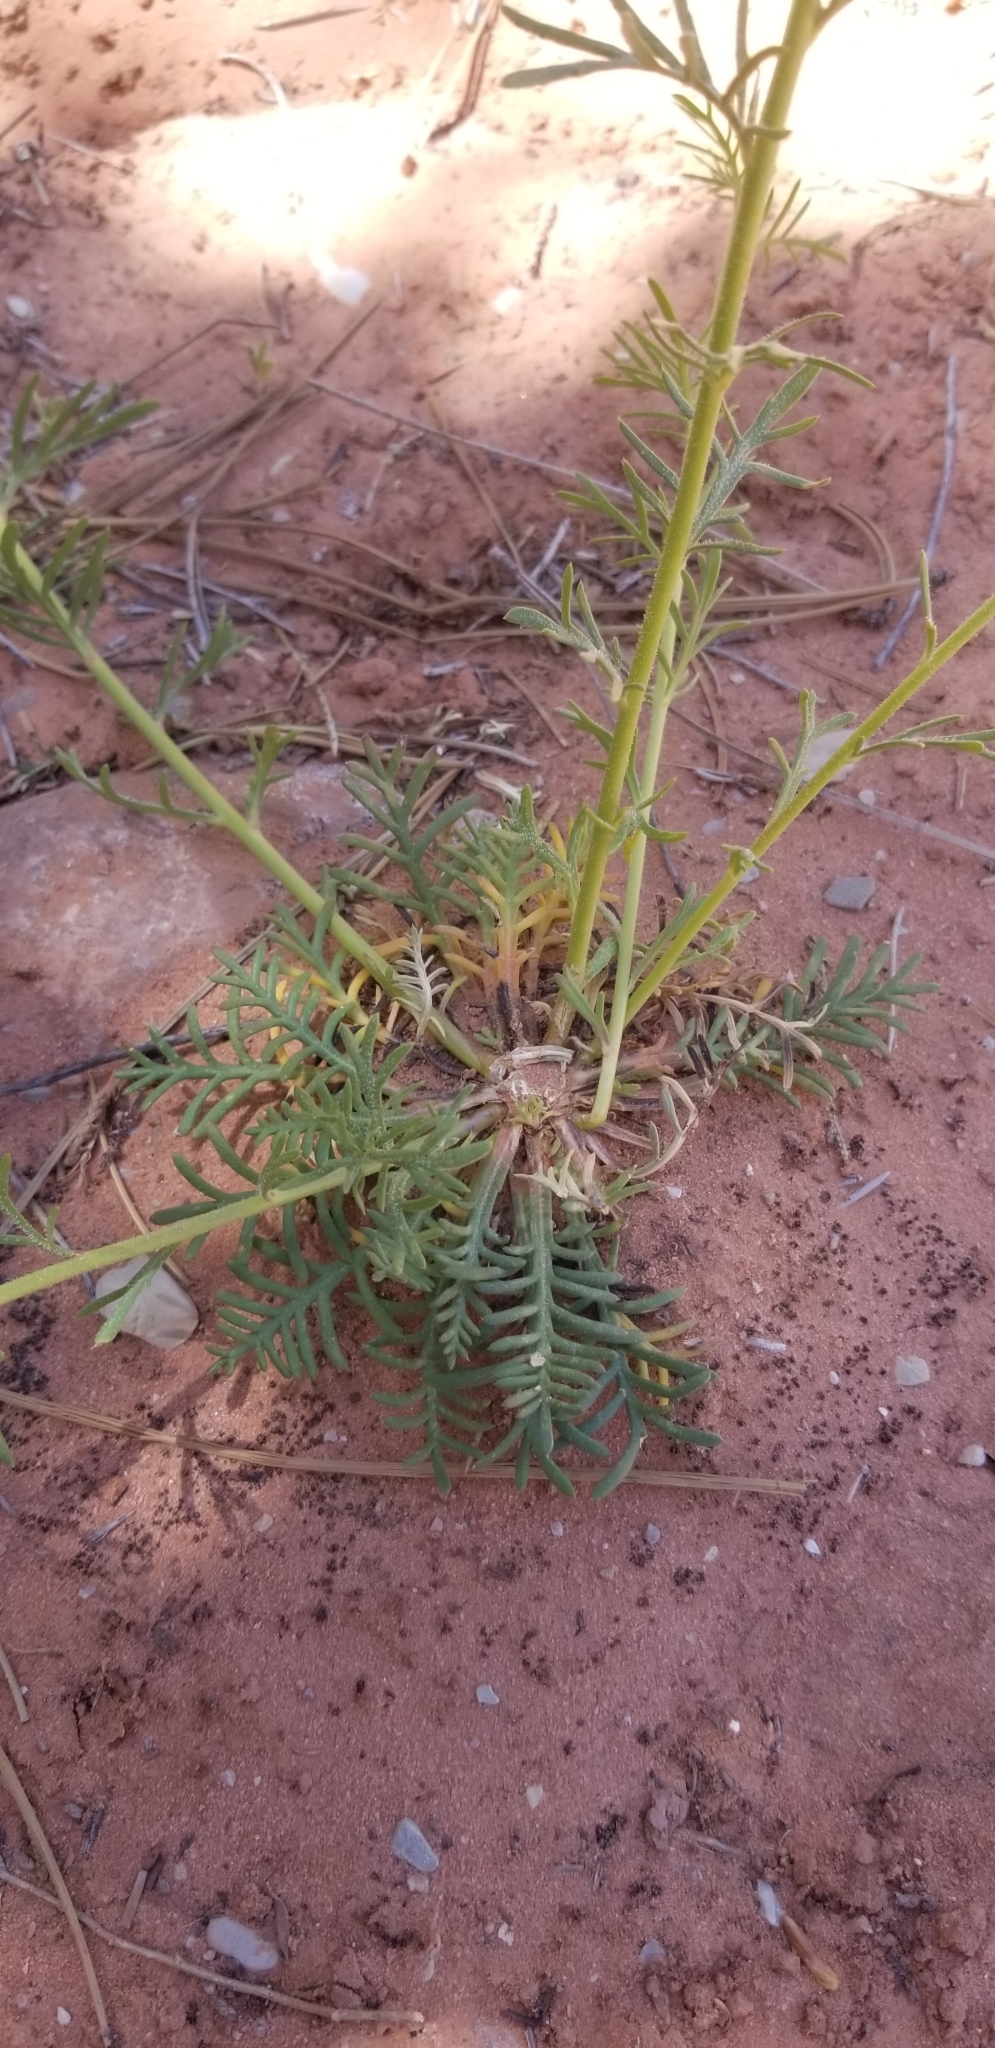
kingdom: Plantae
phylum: Tracheophyta
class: Magnoliopsida
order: Ericales
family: Polemoniaceae
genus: Ipomopsis
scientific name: Ipomopsis arizonica
